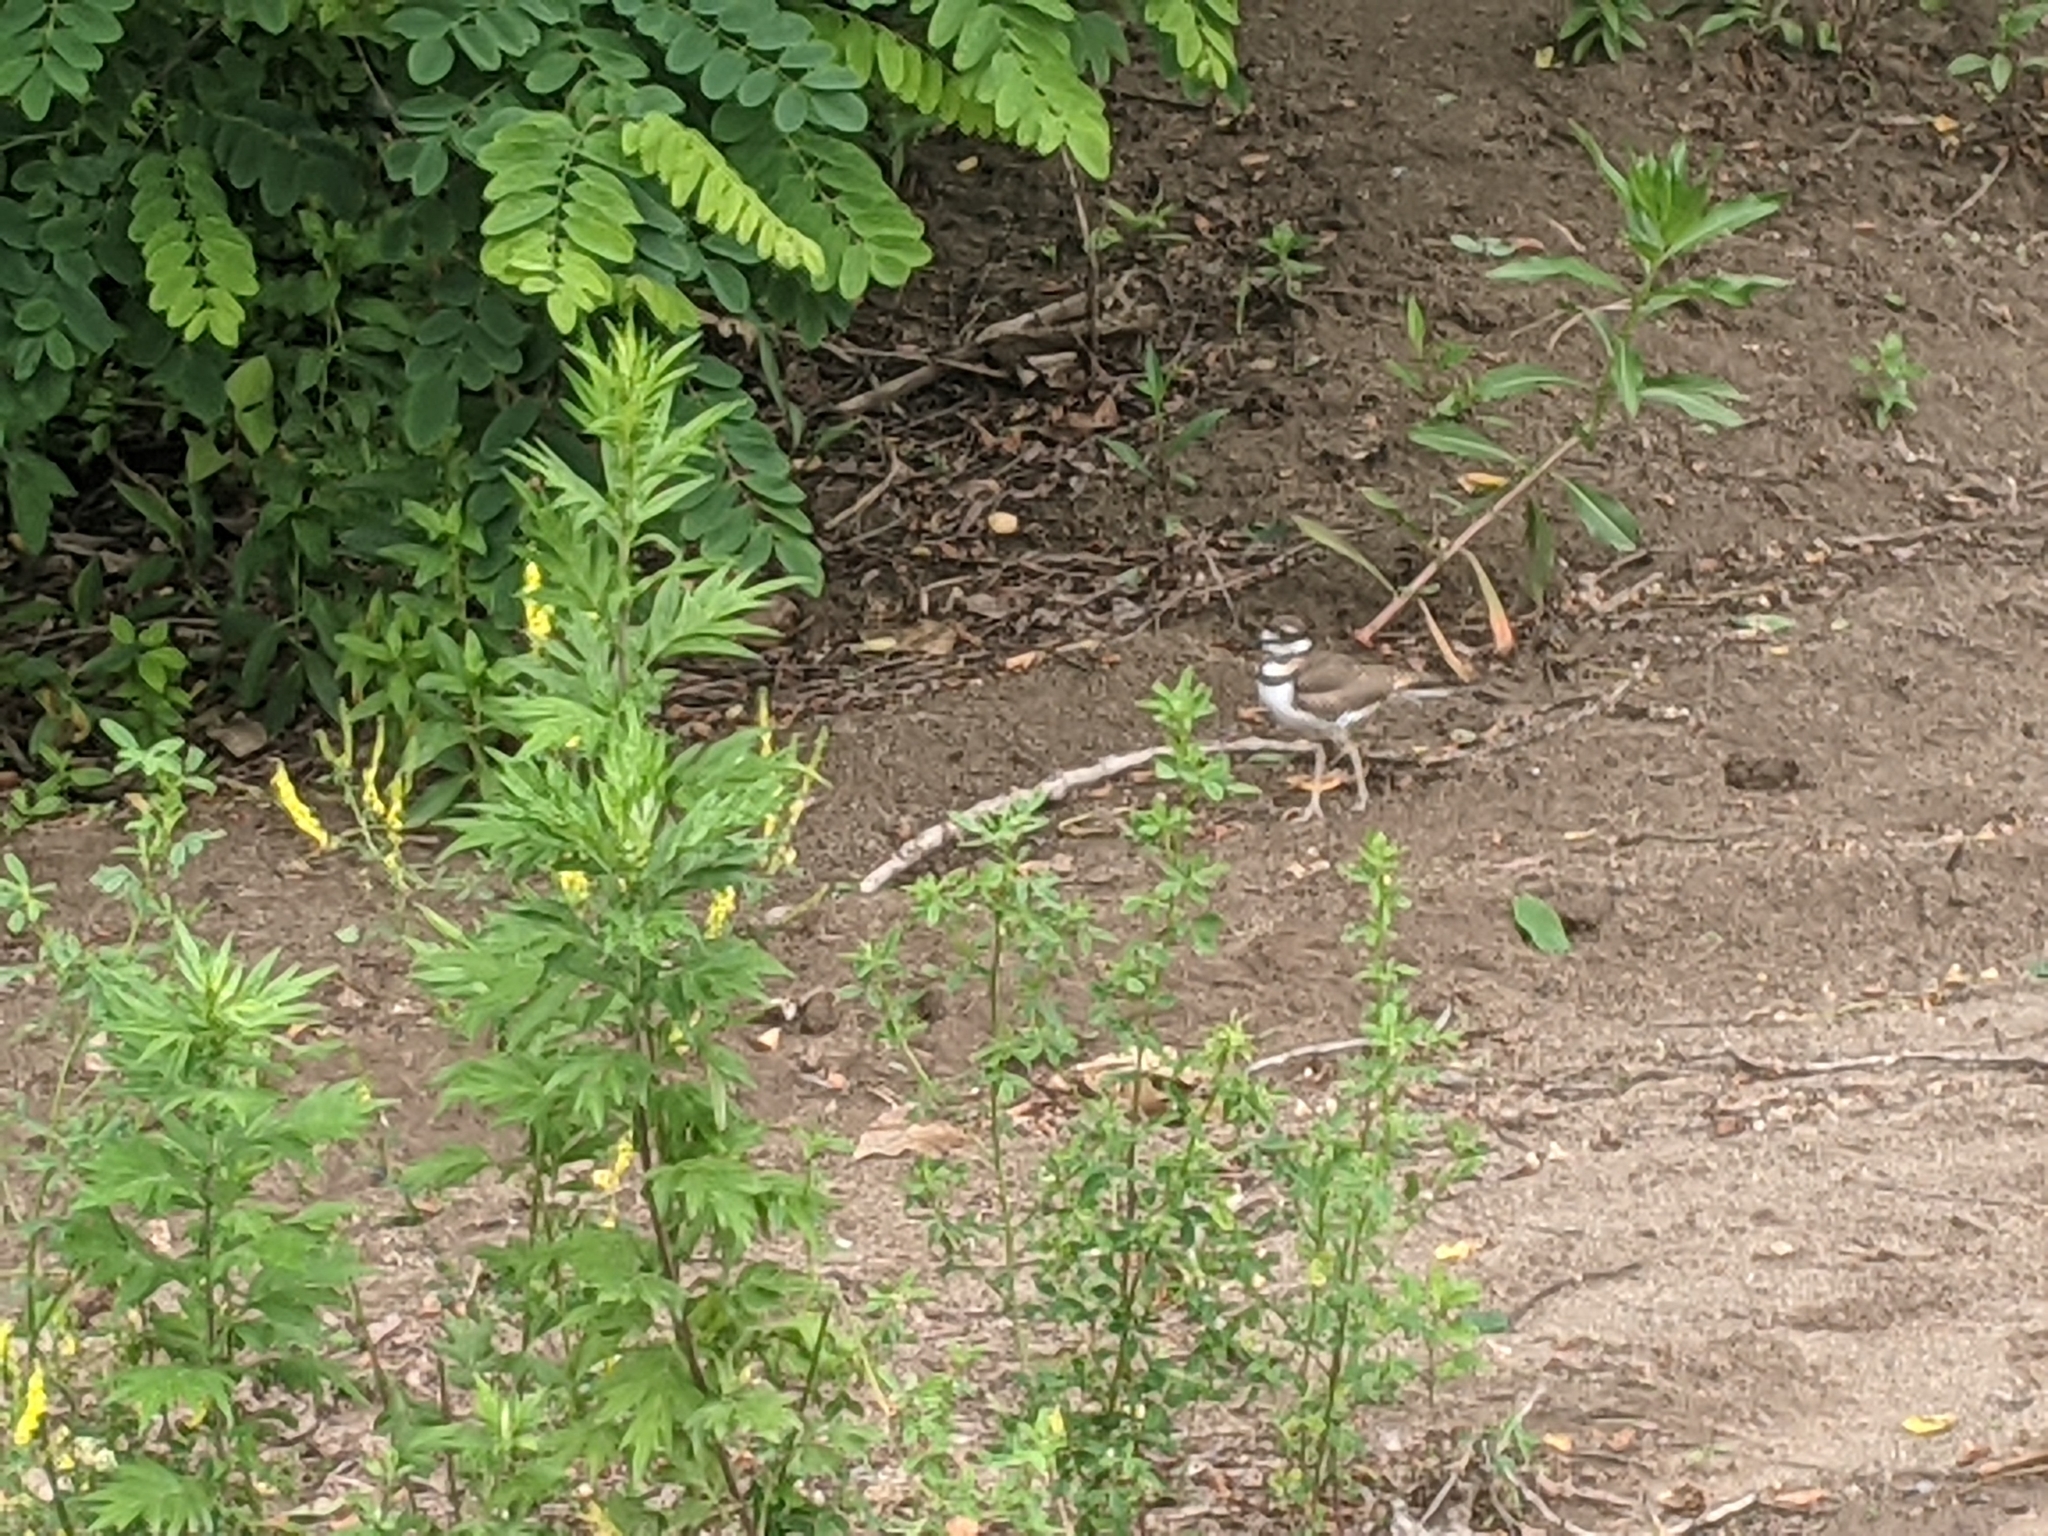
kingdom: Animalia
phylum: Chordata
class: Aves
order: Charadriiformes
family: Charadriidae
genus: Charadrius
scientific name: Charadrius vociferus
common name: Killdeer
